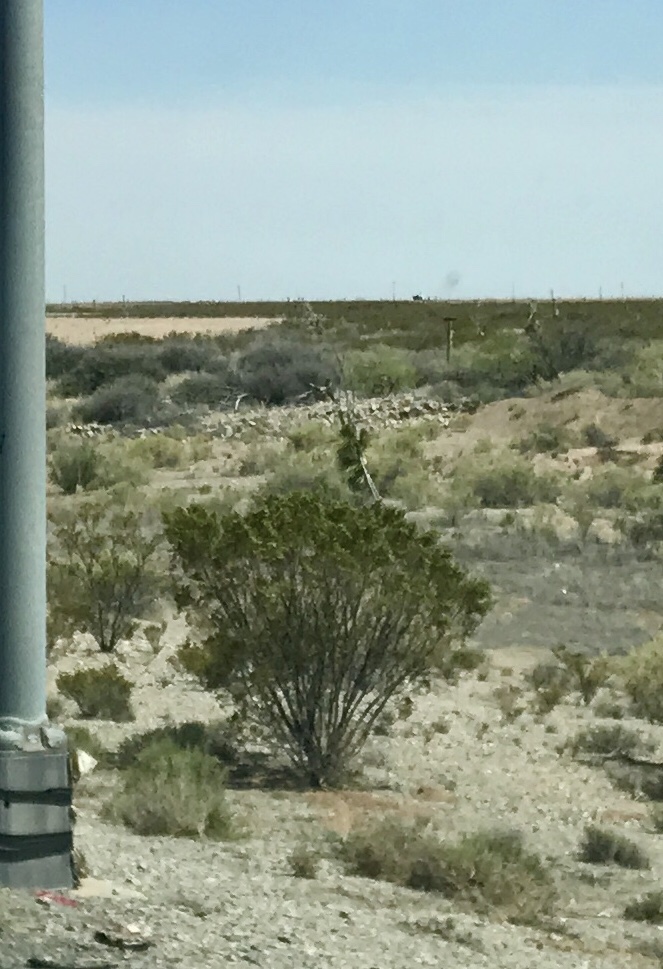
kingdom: Plantae
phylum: Tracheophyta
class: Magnoliopsida
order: Zygophyllales
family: Zygophyllaceae
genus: Larrea
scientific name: Larrea tridentata
